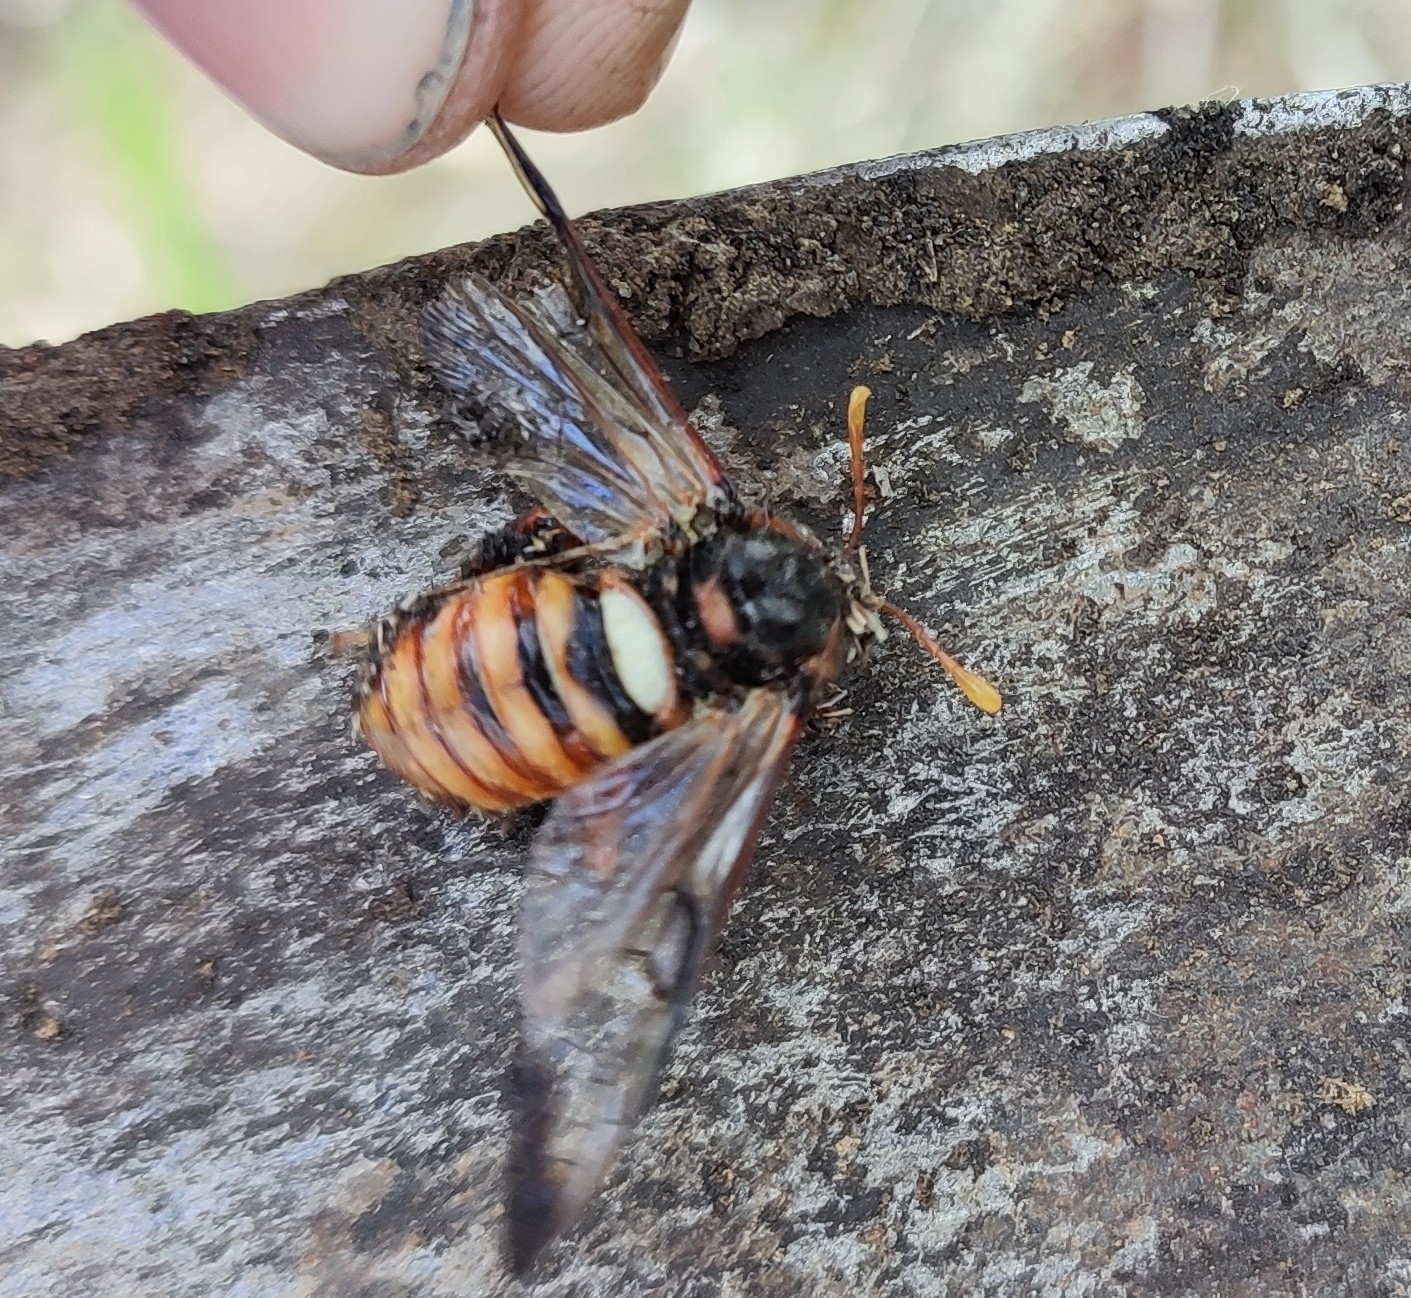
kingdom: Animalia
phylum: Arthropoda
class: Insecta
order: Hymenoptera
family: Cimbicidae
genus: Cimbex
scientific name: Cimbex femoratus
